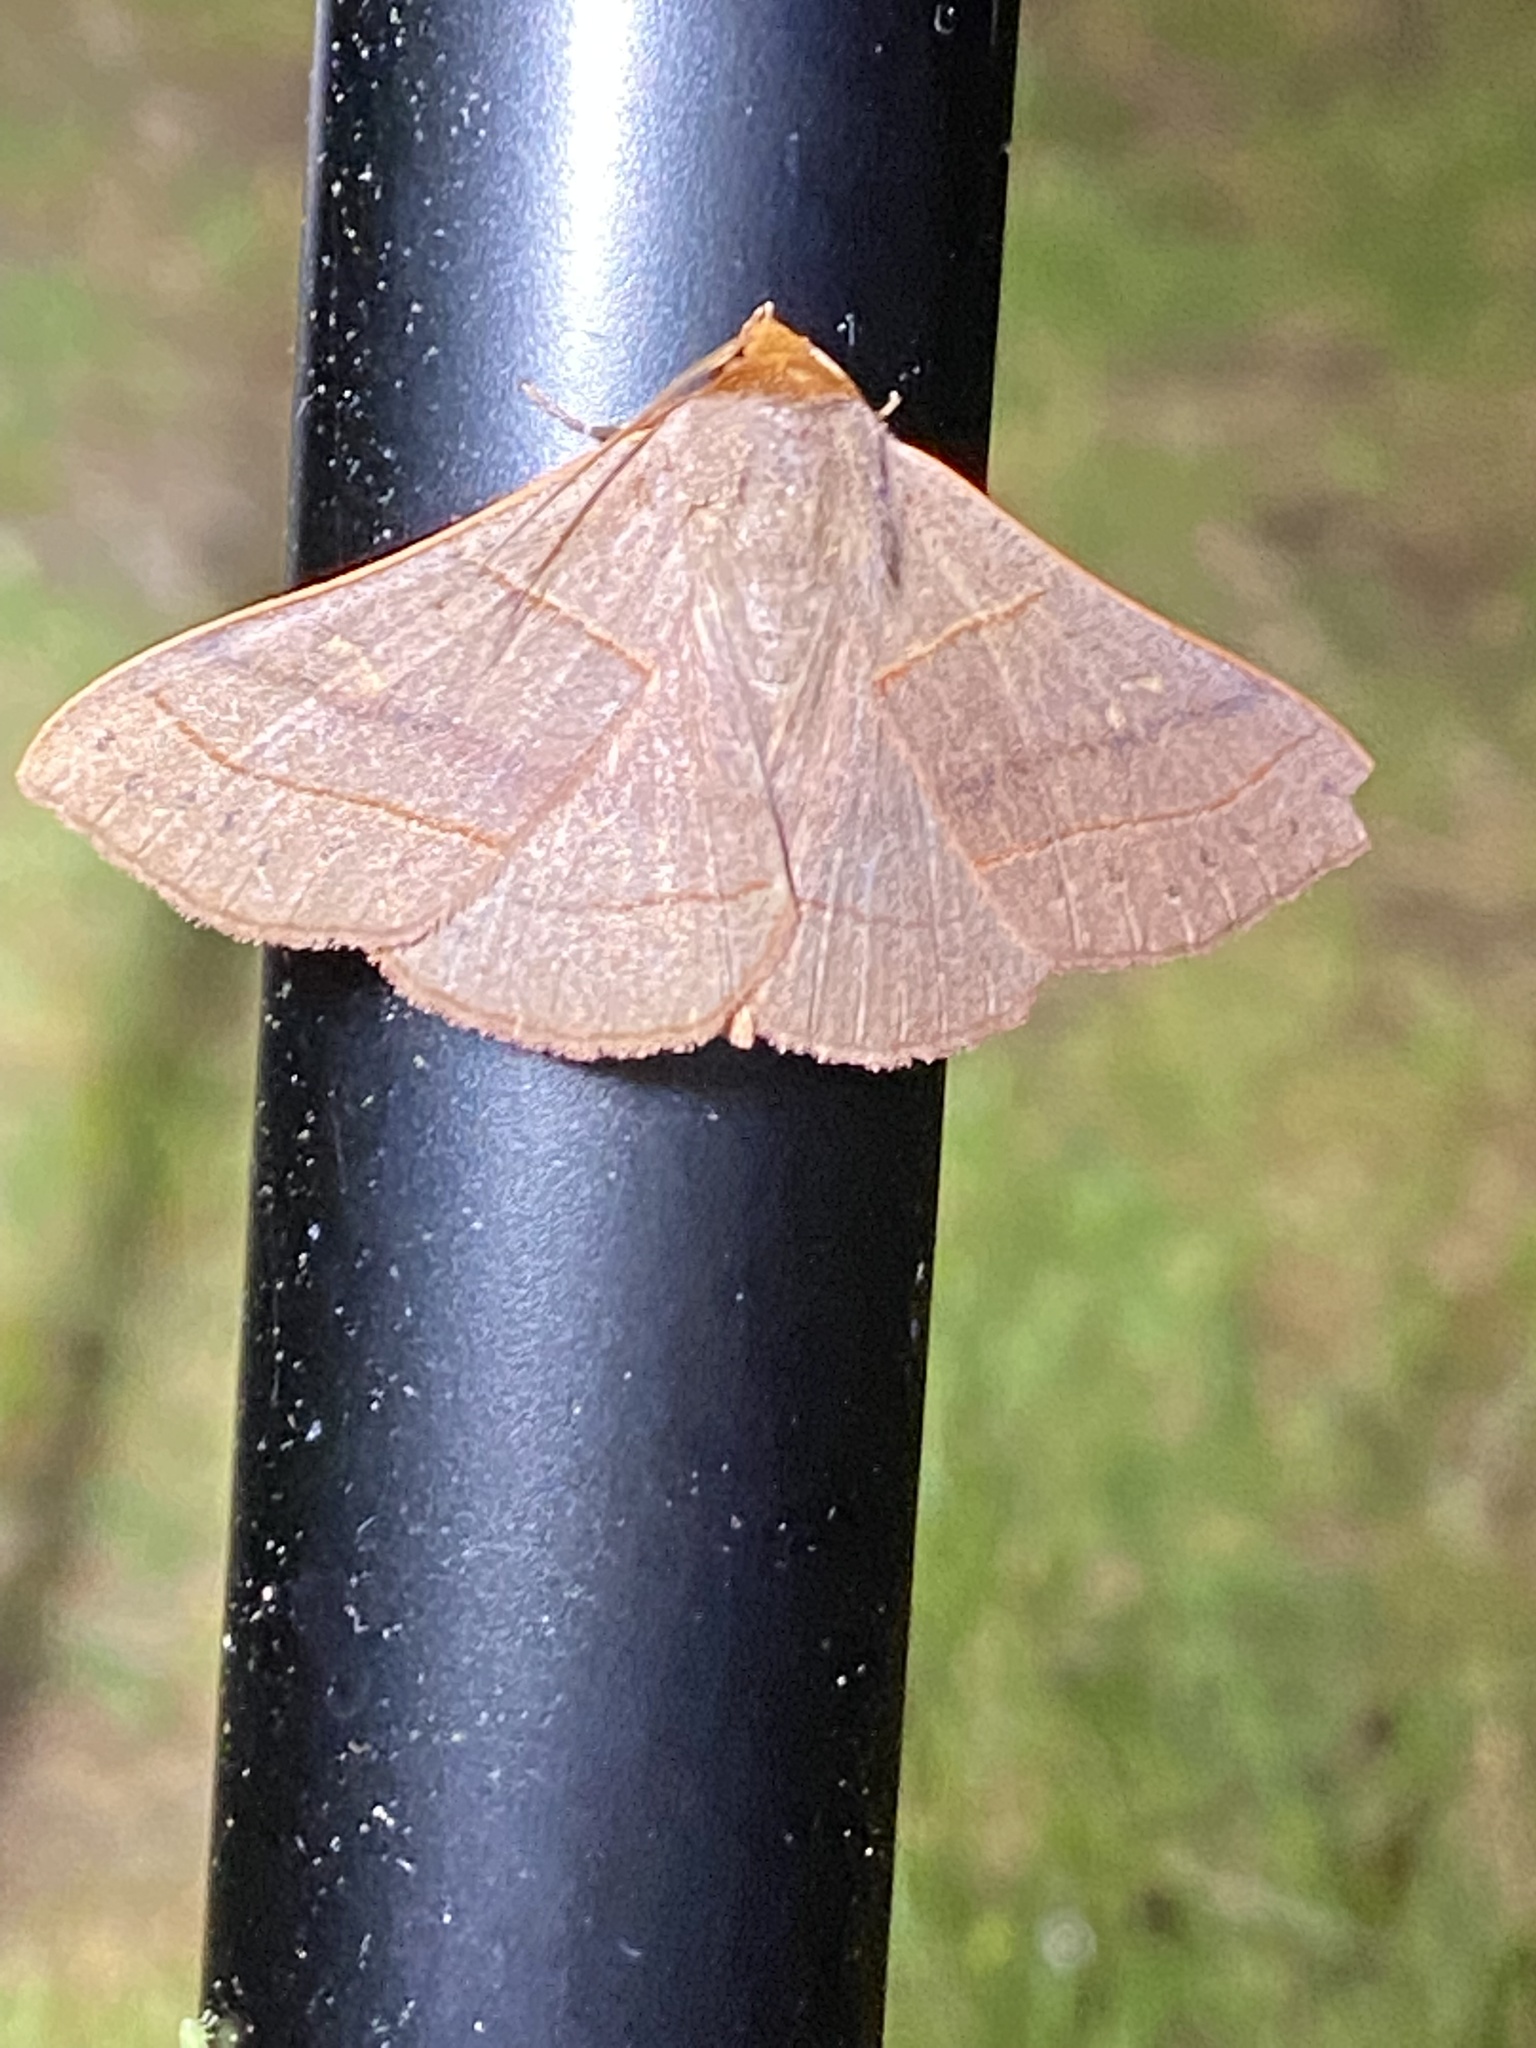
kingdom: Animalia
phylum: Arthropoda
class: Insecta
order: Lepidoptera
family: Erebidae
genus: Panopoda
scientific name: Panopoda rufimargo
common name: Red-lined panopoda moth
